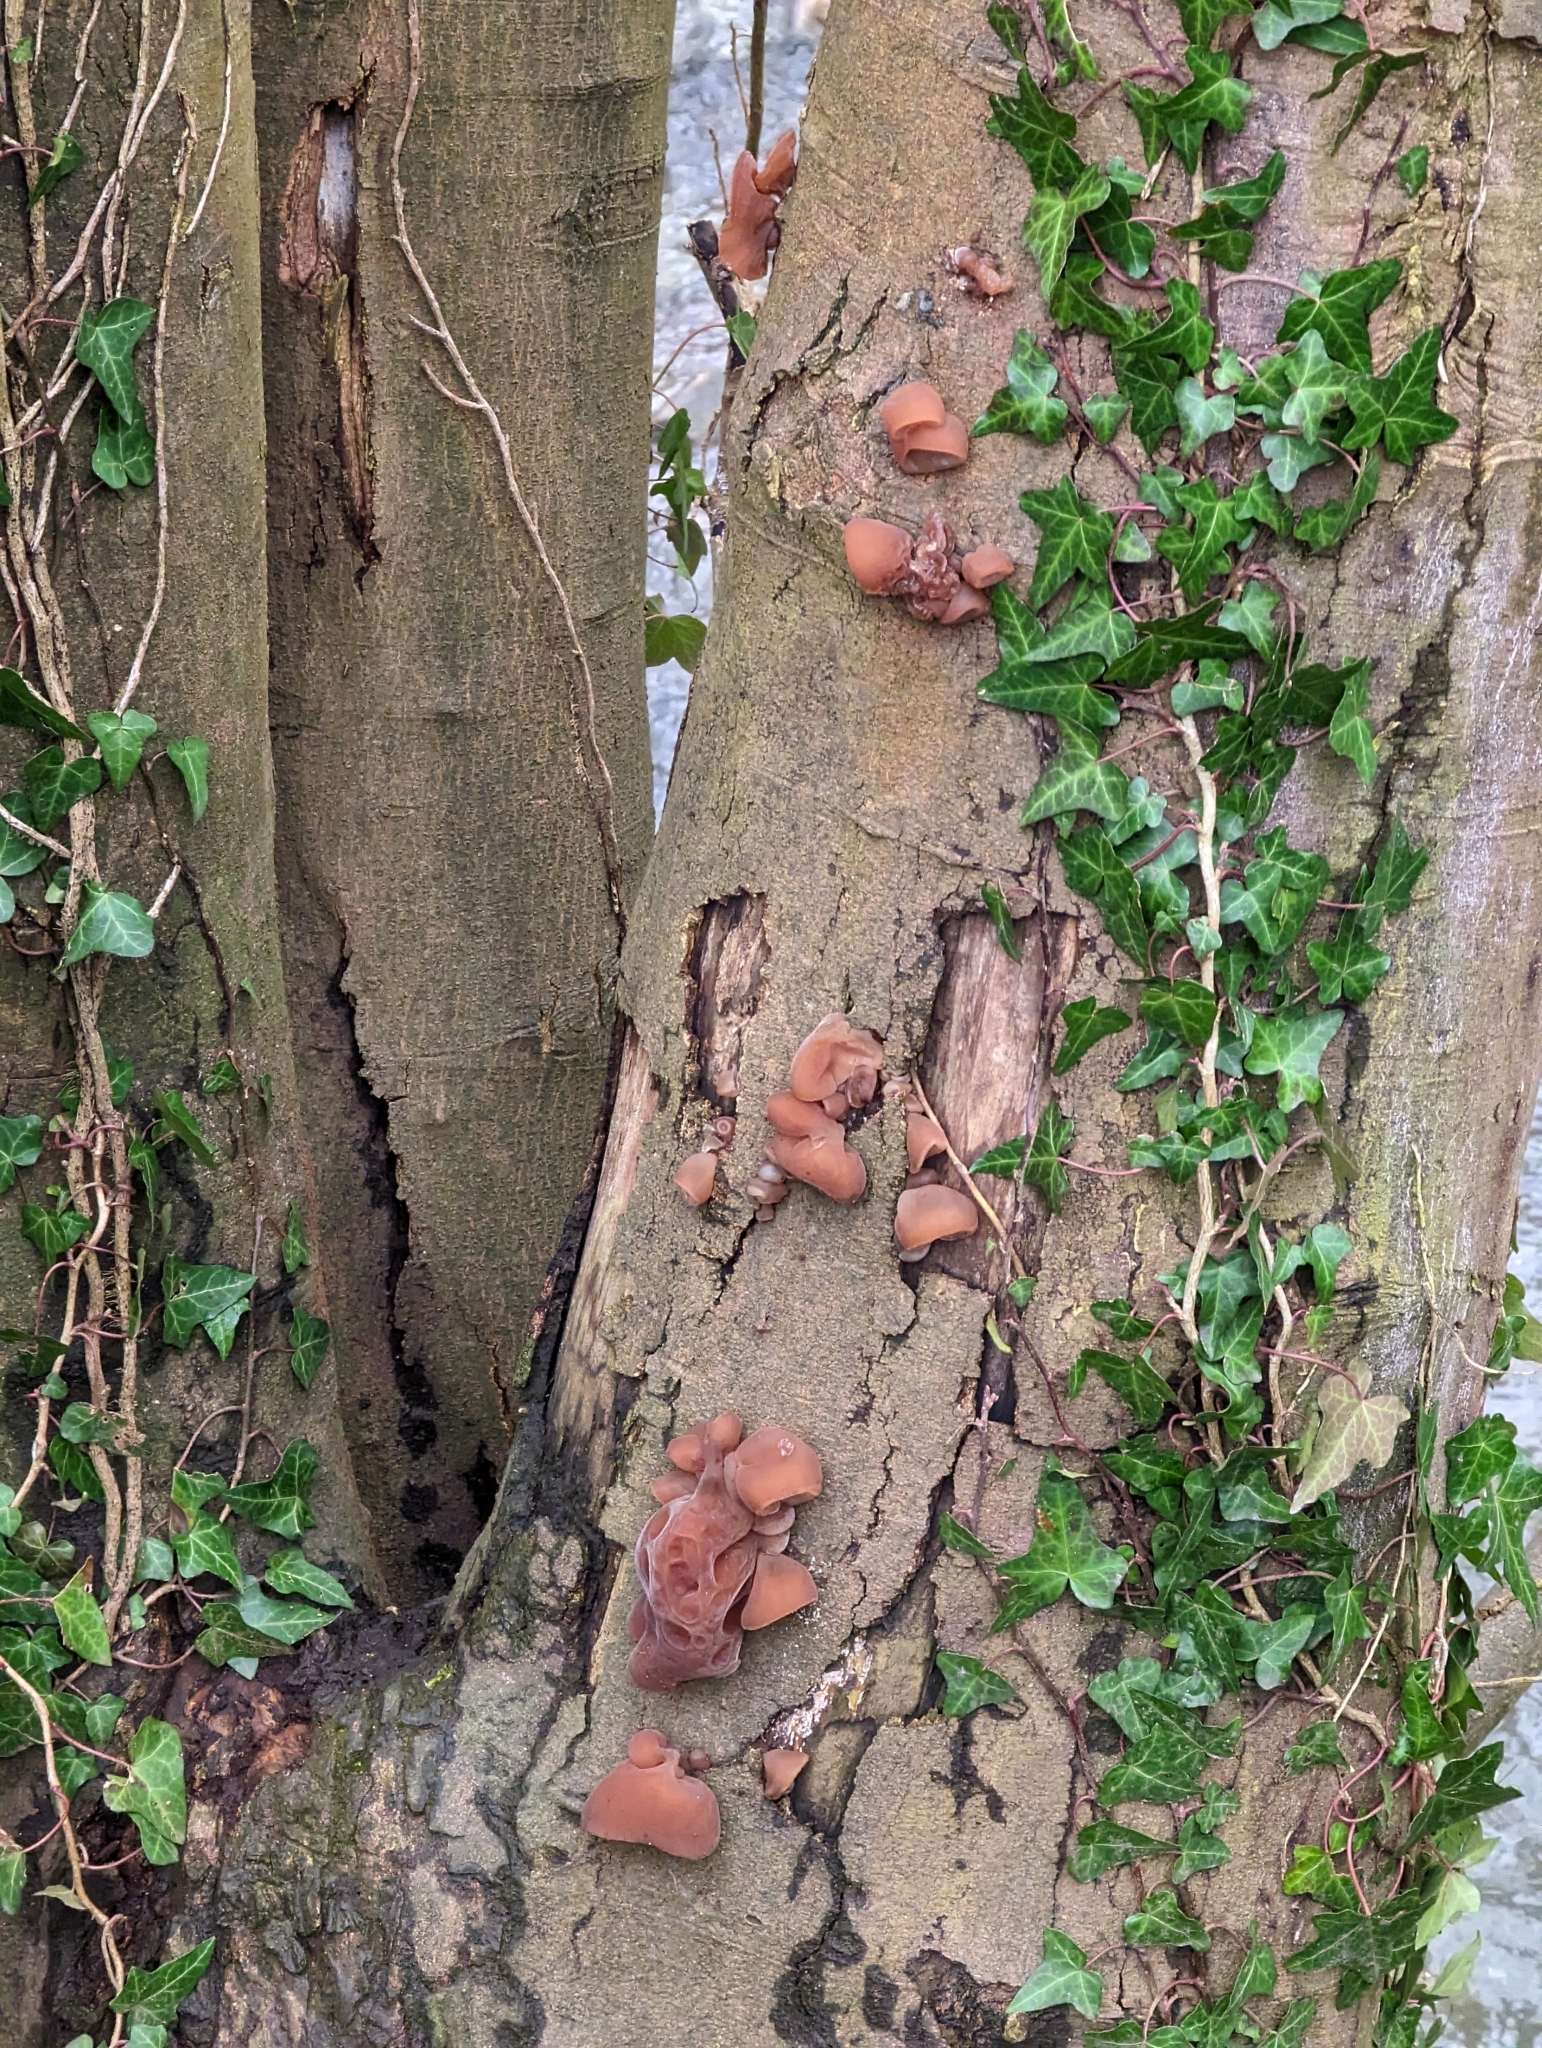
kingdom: Fungi
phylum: Basidiomycota
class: Agaricomycetes
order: Auriculariales
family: Auriculariaceae
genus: Auricularia
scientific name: Auricularia auricula-judae
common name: Jelly ear
